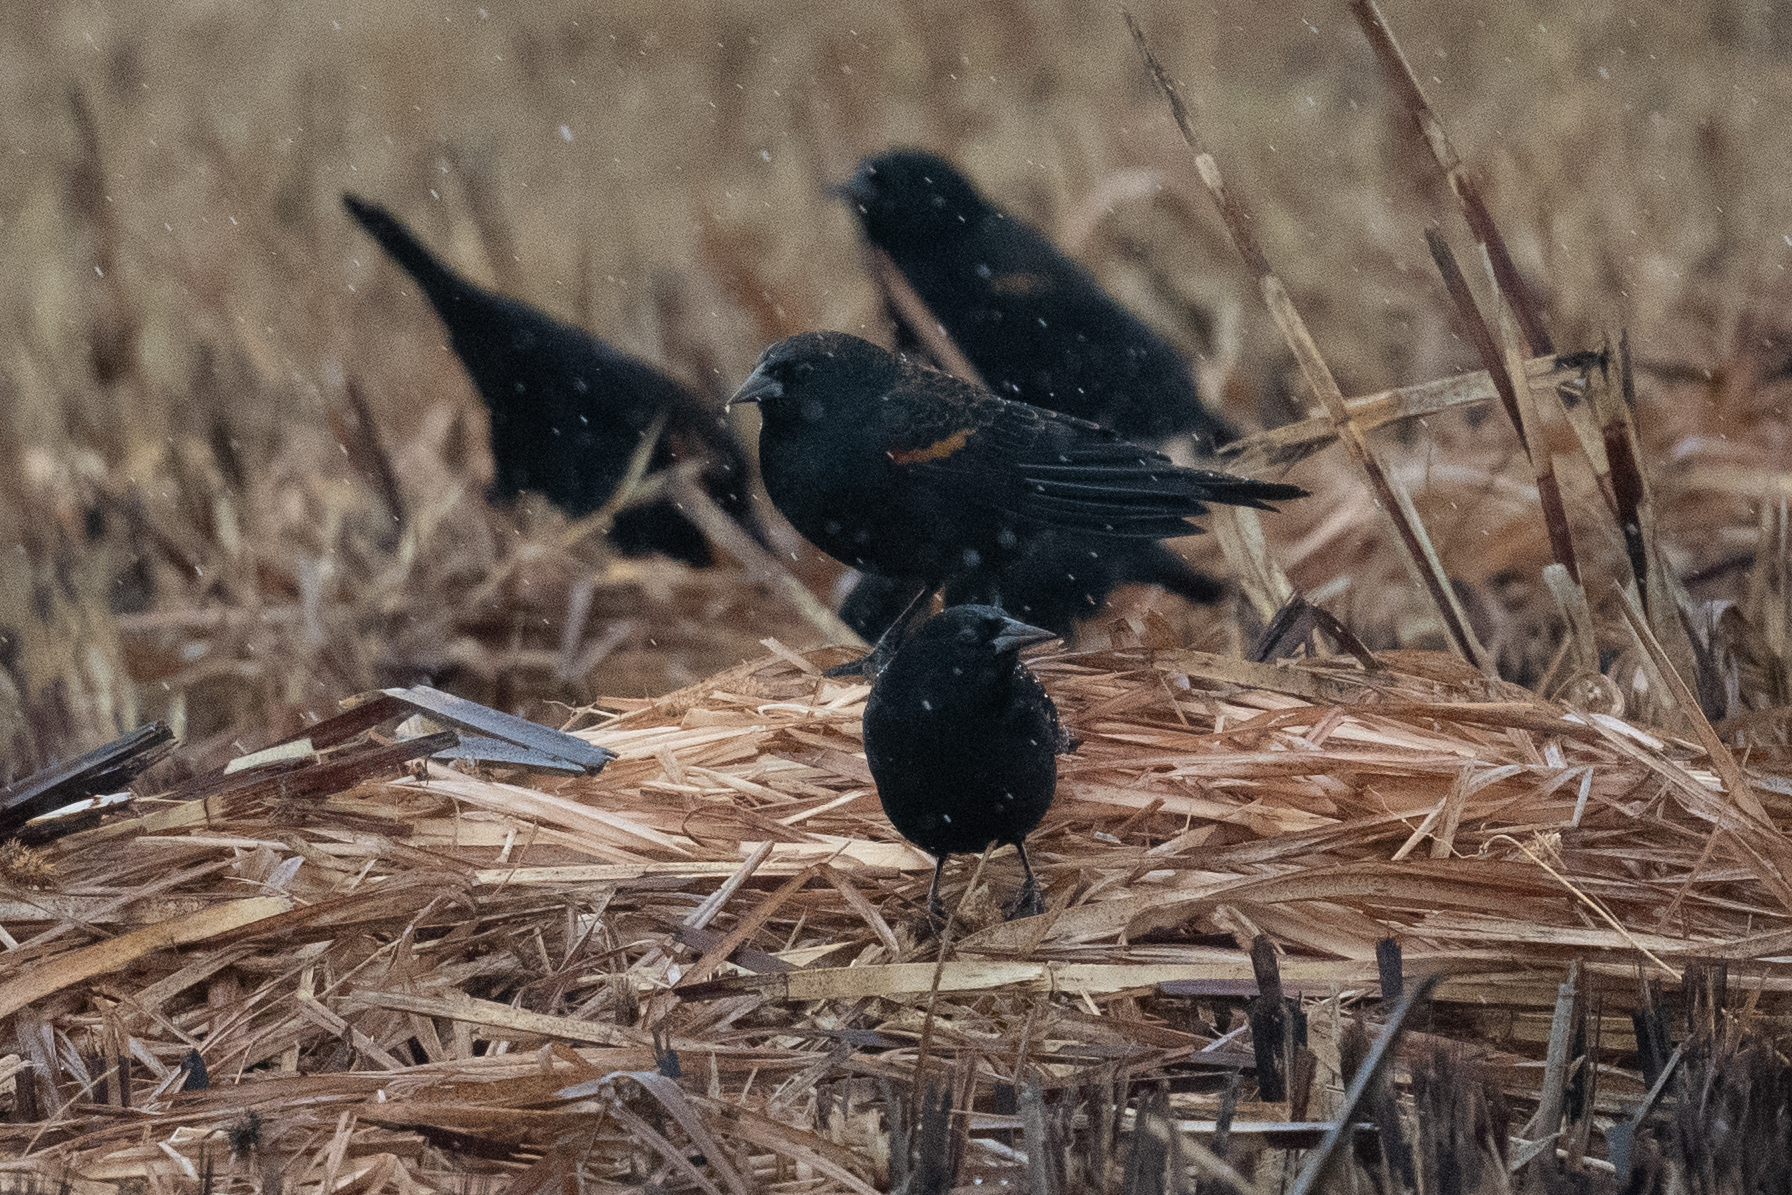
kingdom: Animalia
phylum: Chordata
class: Aves
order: Passeriformes
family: Icteridae
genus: Agelaius
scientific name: Agelaius phoeniceus
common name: Red-winged blackbird
